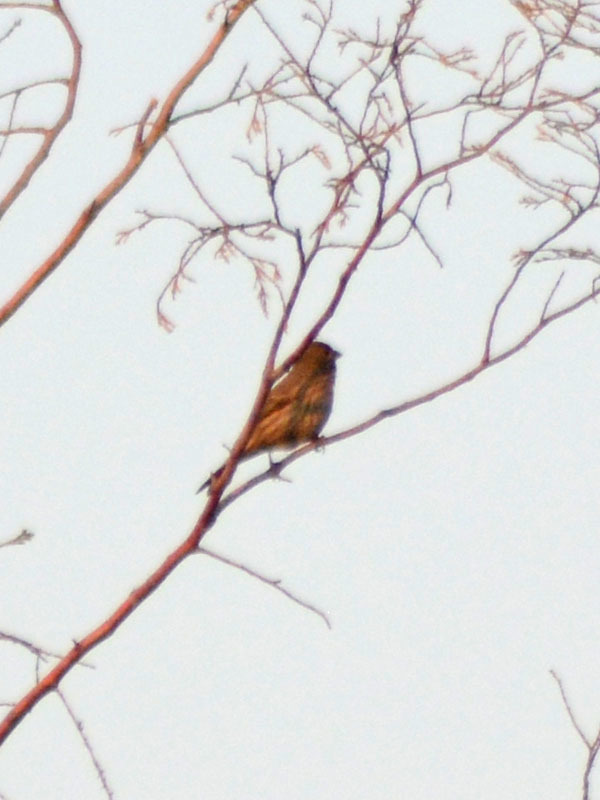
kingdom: Animalia
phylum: Chordata
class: Aves
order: Passeriformes
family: Fringillidae
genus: Haemorhous
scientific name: Haemorhous mexicanus
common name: House finch
